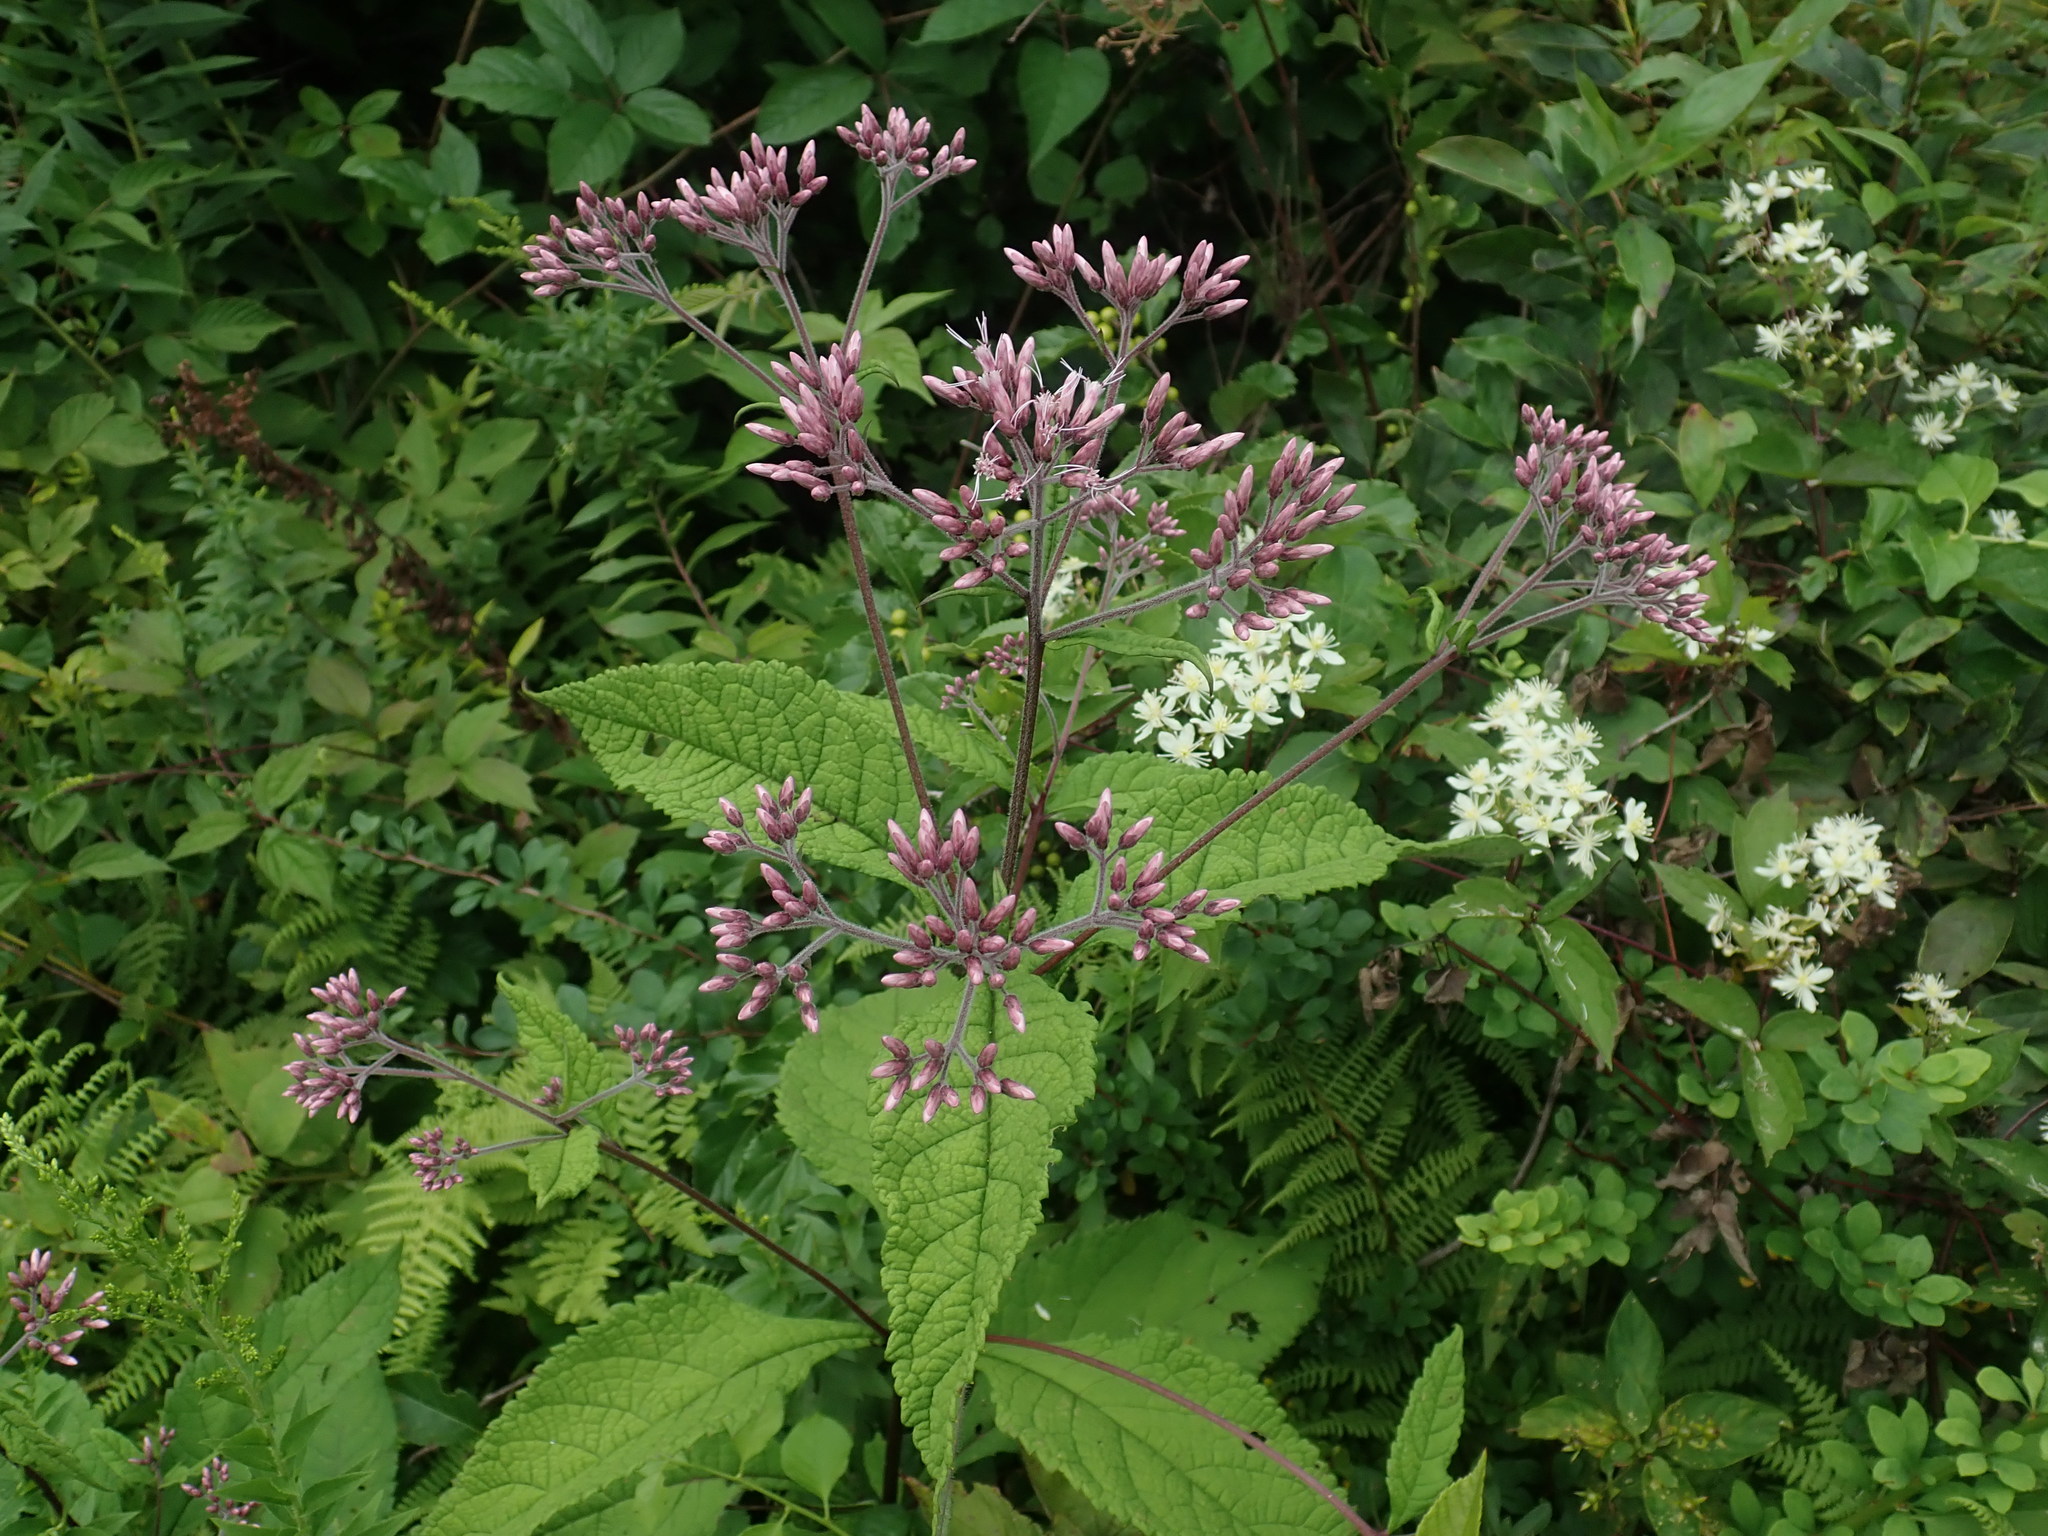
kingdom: Plantae
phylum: Tracheophyta
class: Magnoliopsida
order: Asterales
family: Asteraceae
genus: Eutrochium
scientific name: Eutrochium
